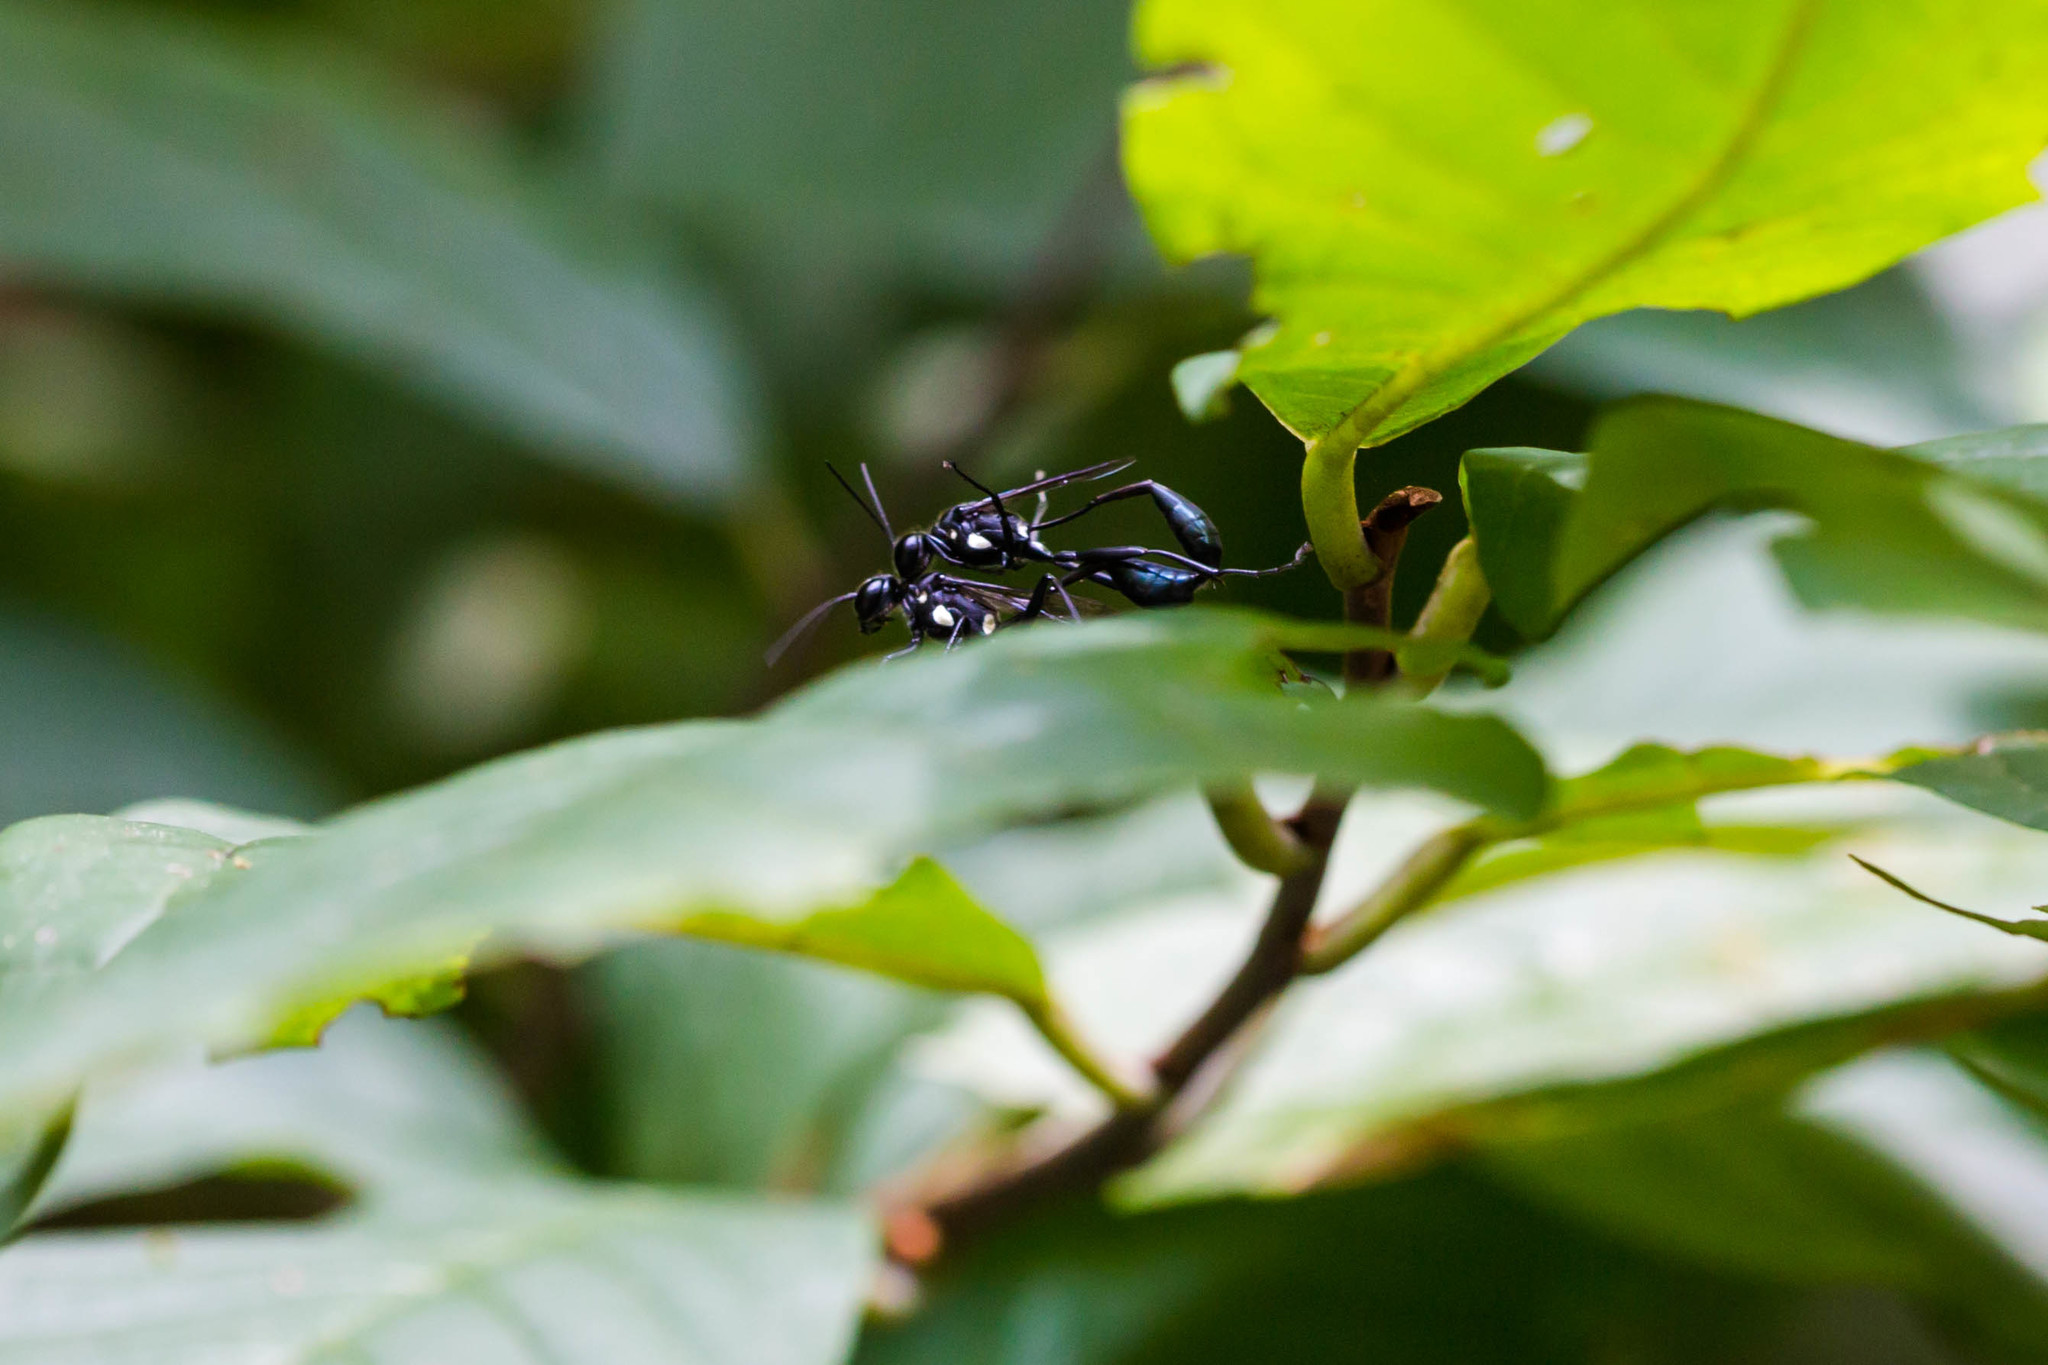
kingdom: Animalia
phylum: Arthropoda
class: Insecta
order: Hymenoptera
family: Sphecidae
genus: Eremnophila
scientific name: Eremnophila aureonotata
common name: Gold-marked thread-waisted wasp
